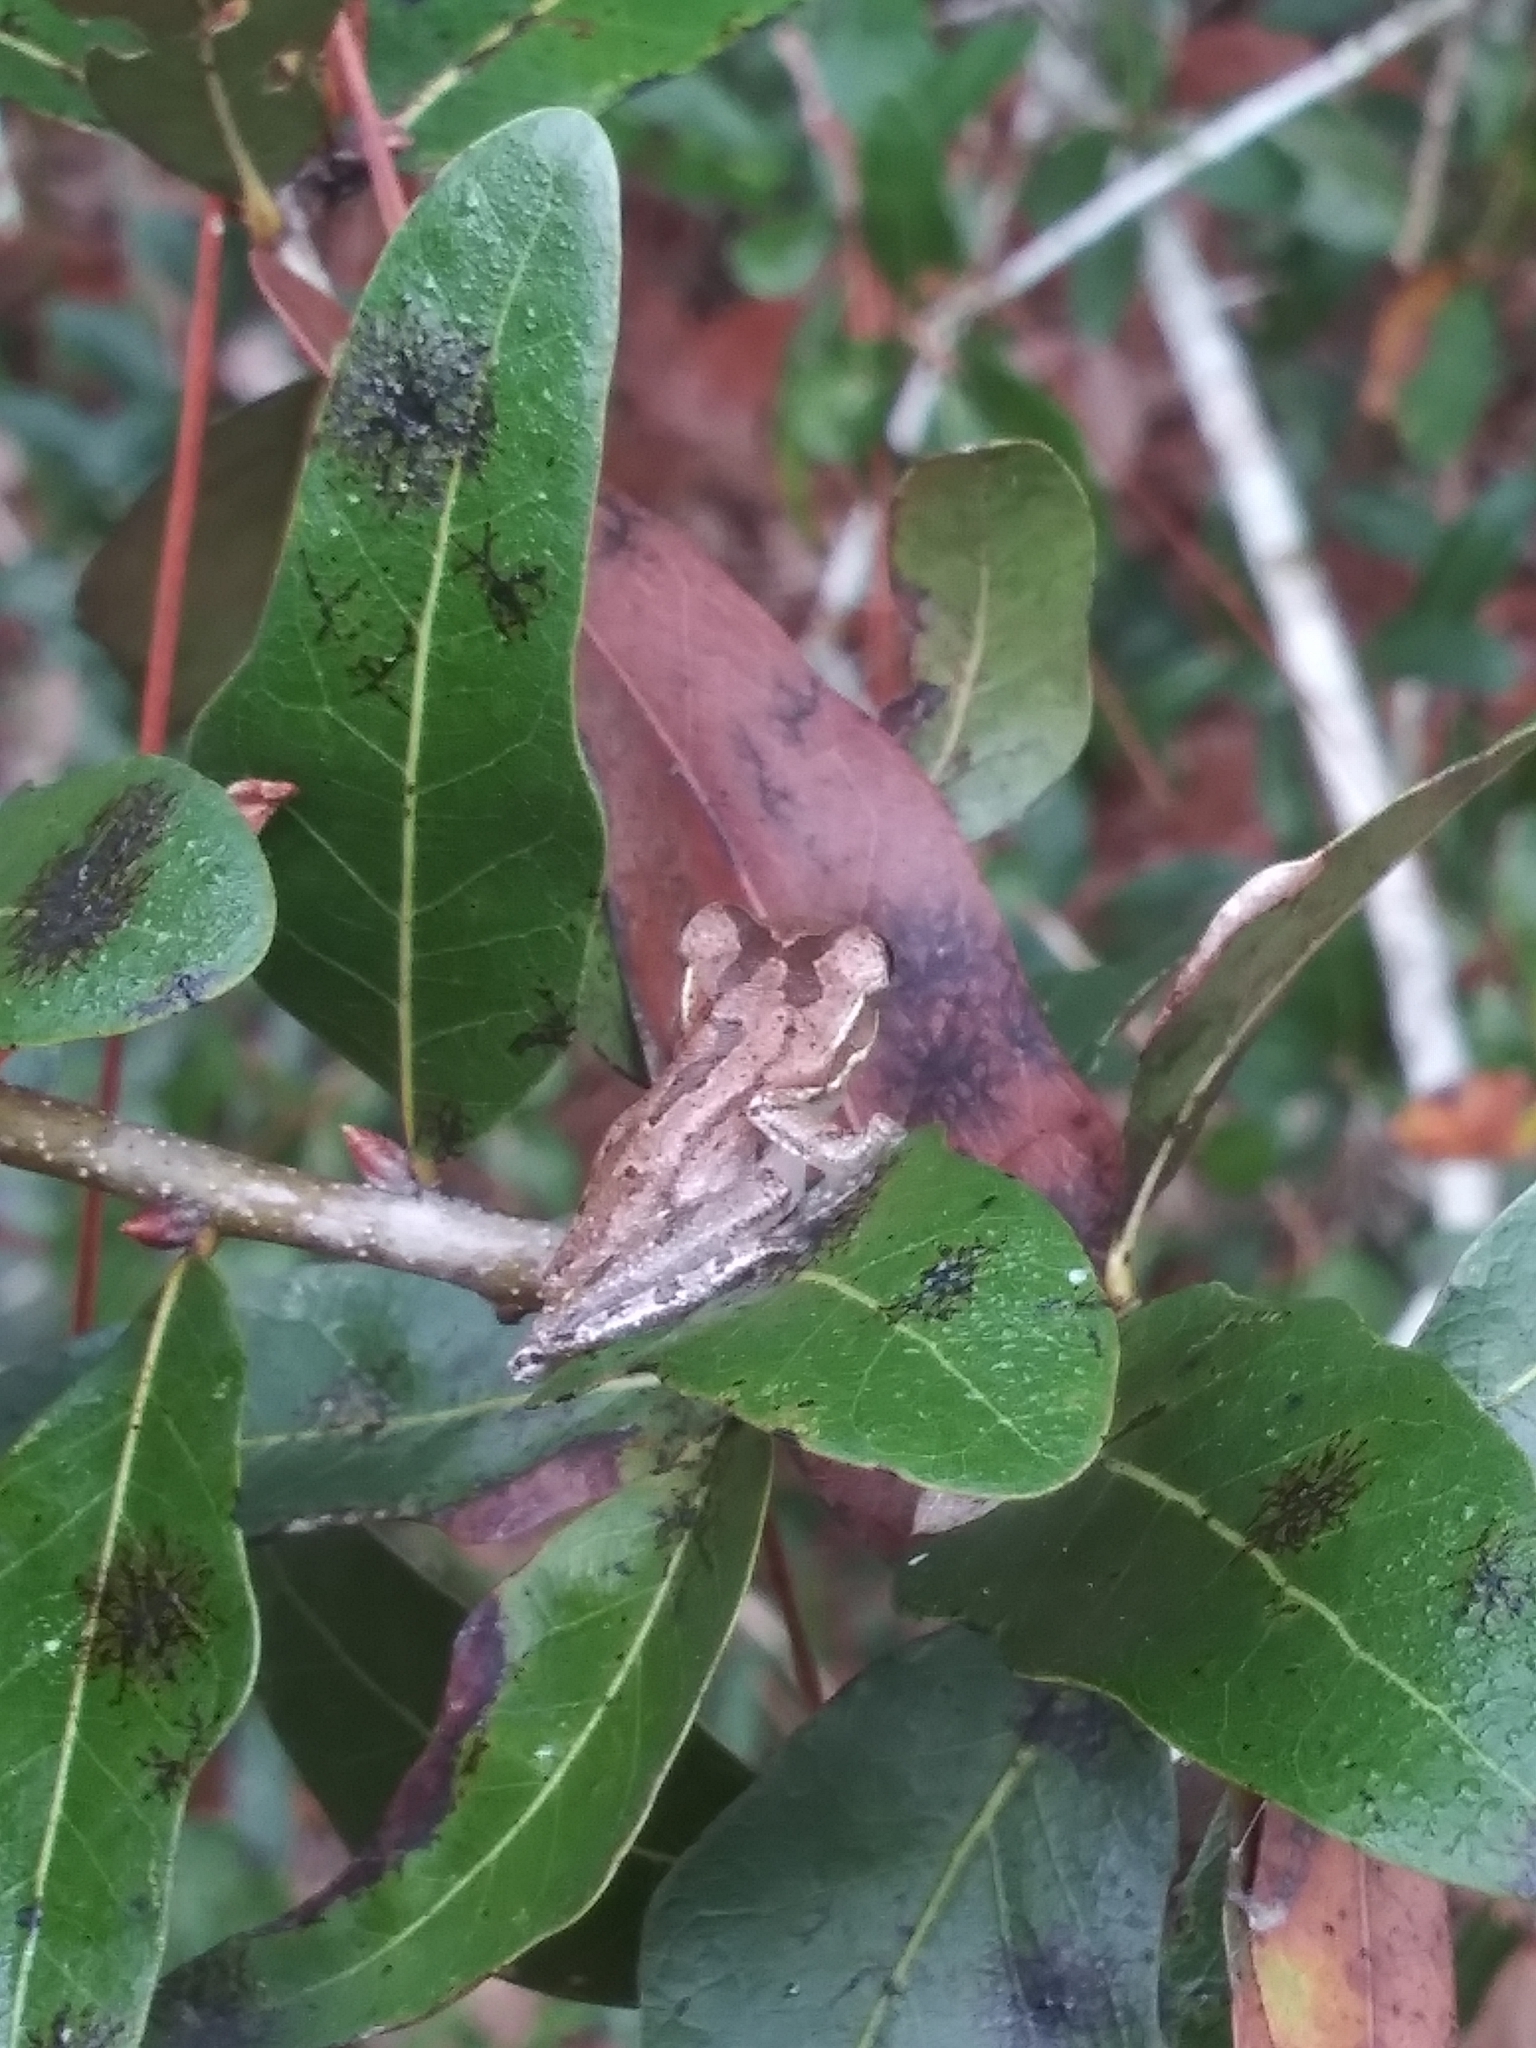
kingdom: Animalia
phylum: Chordata
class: Amphibia
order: Anura
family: Hylidae
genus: Osteopilus
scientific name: Osteopilus septentrionalis
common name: Cuban treefrog
